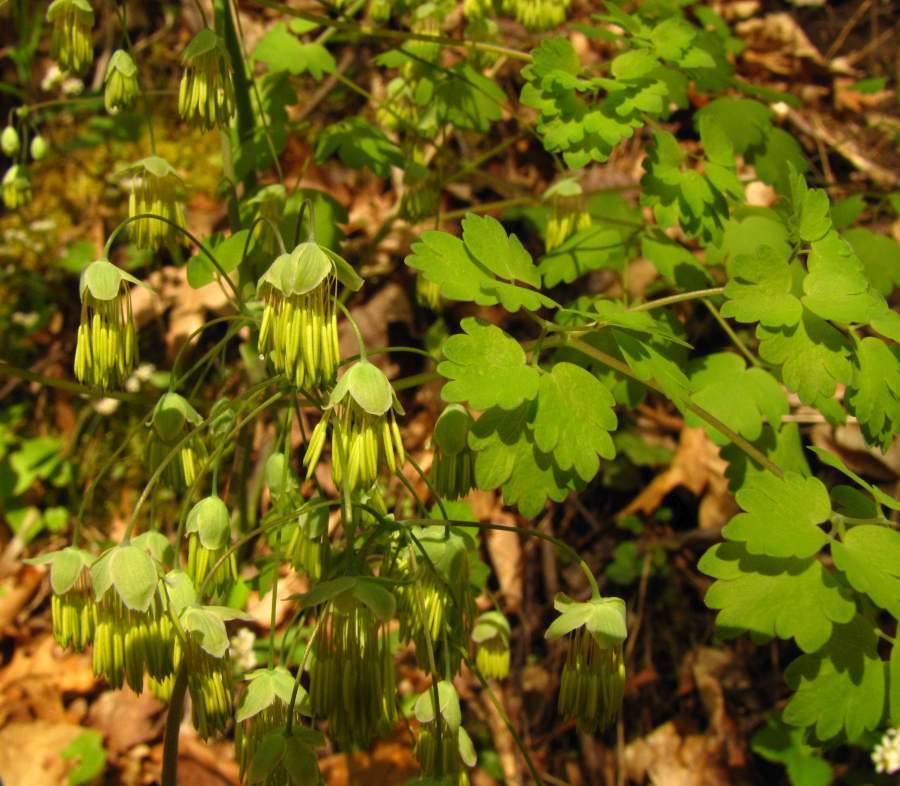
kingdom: Plantae
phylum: Tracheophyta
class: Magnoliopsida
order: Ranunculales
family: Ranunculaceae
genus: Thalictrum
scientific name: Thalictrum dioicum
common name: Early meadow-rue
